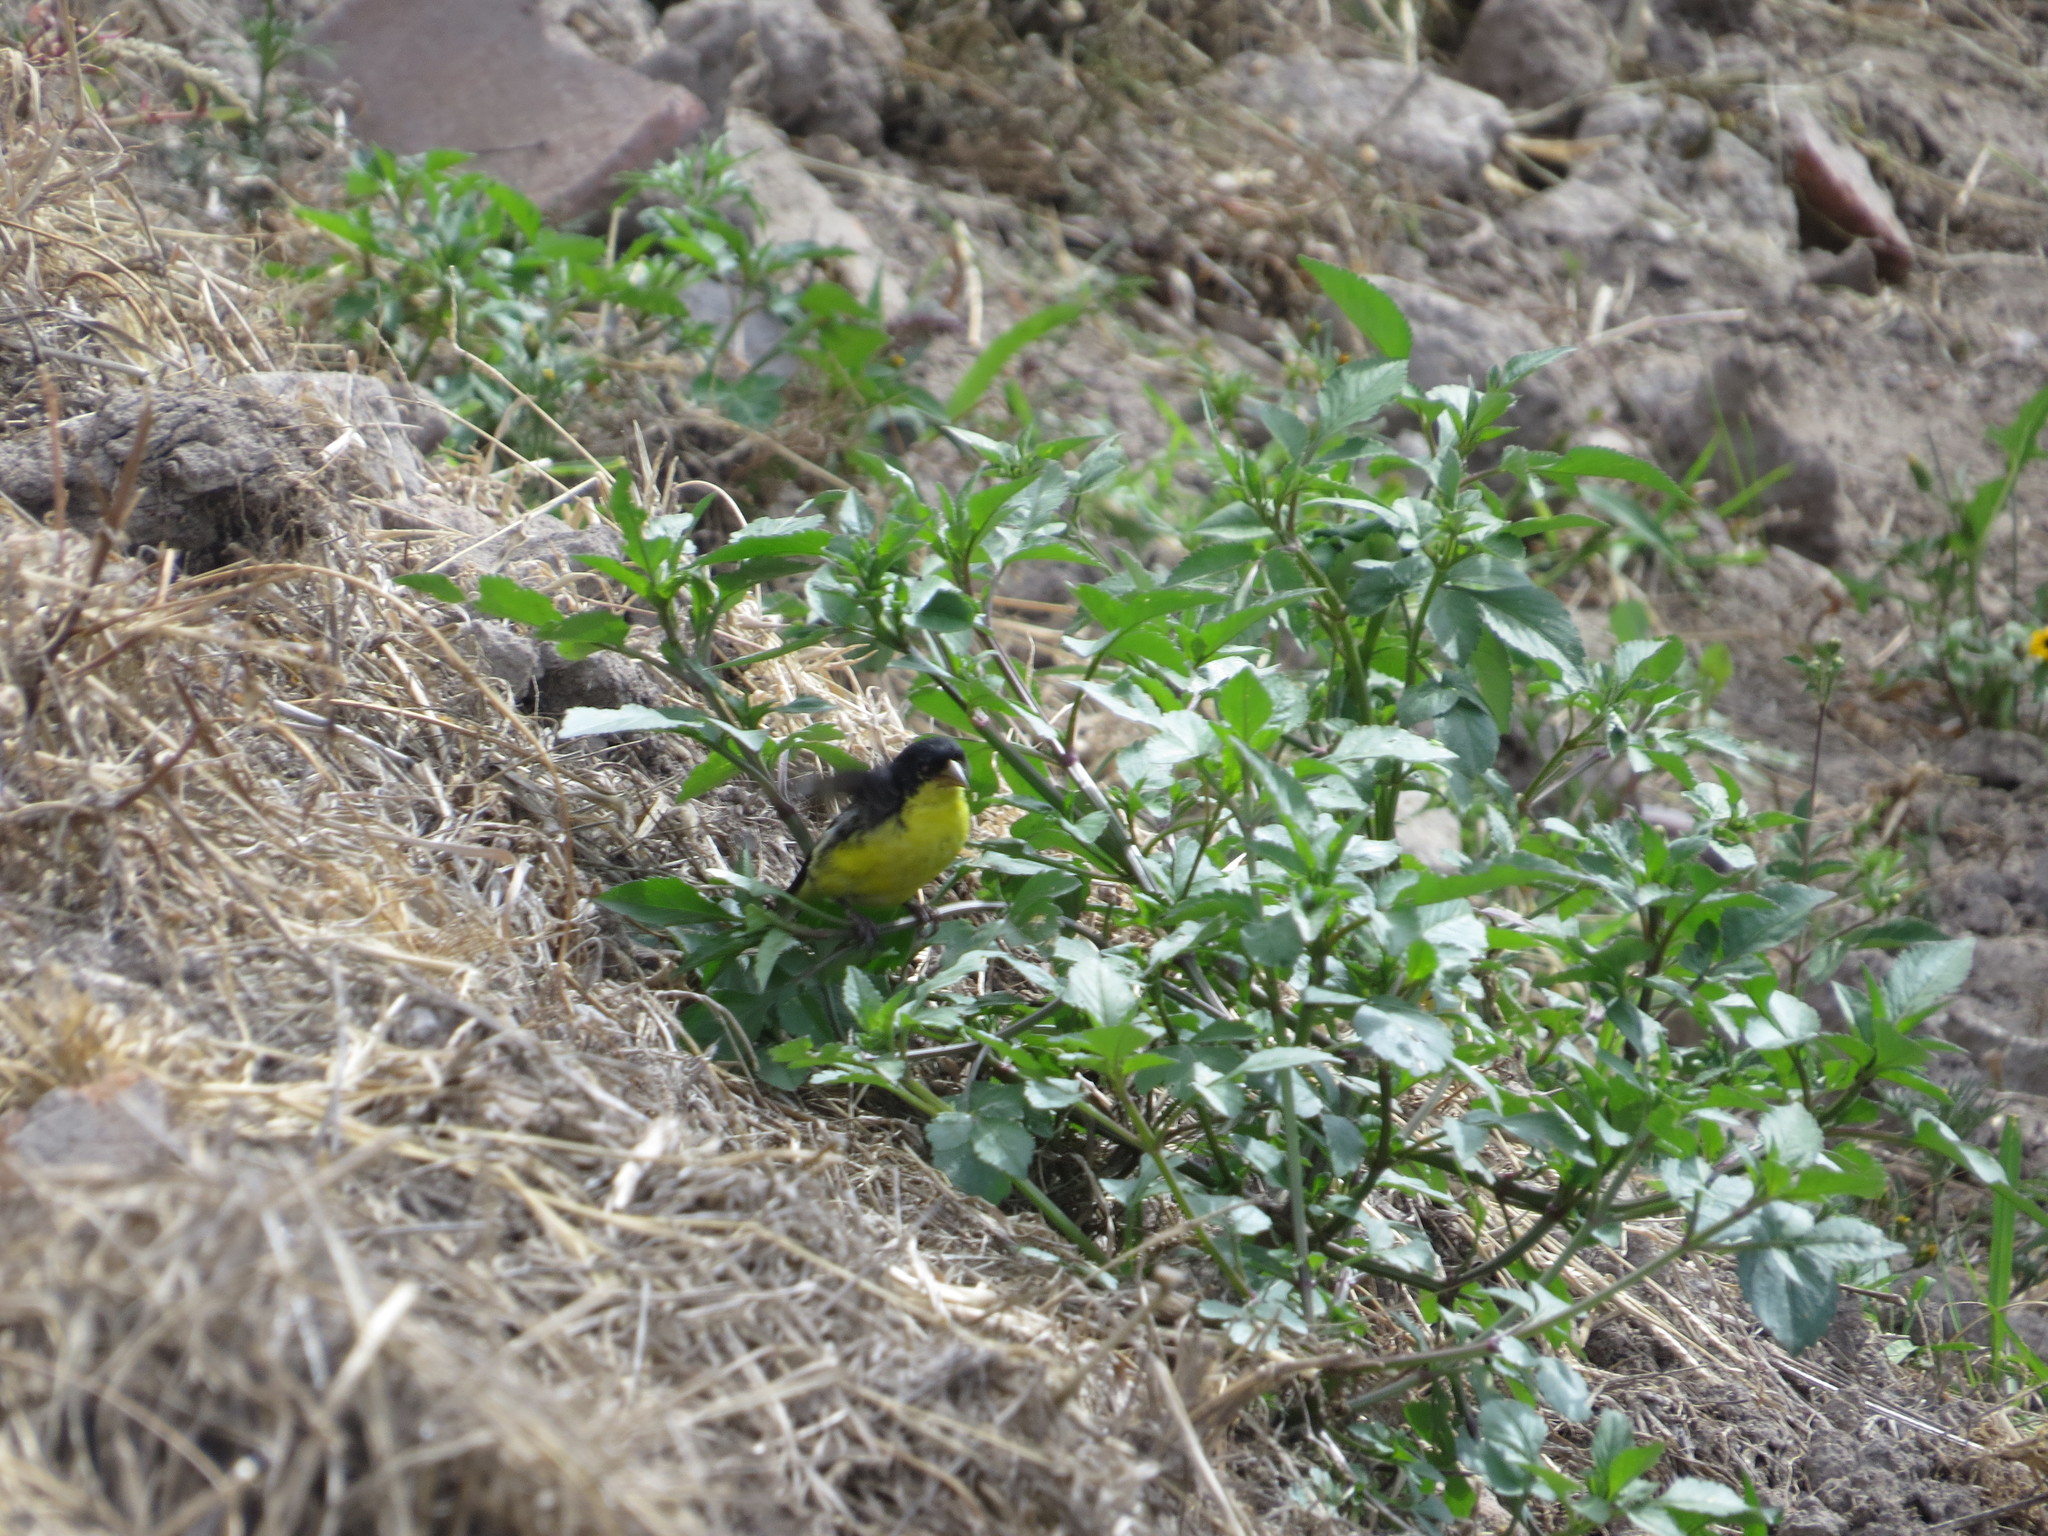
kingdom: Animalia
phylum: Chordata
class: Aves
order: Passeriformes
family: Fringillidae
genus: Spinus
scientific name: Spinus psaltria
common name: Lesser goldfinch
